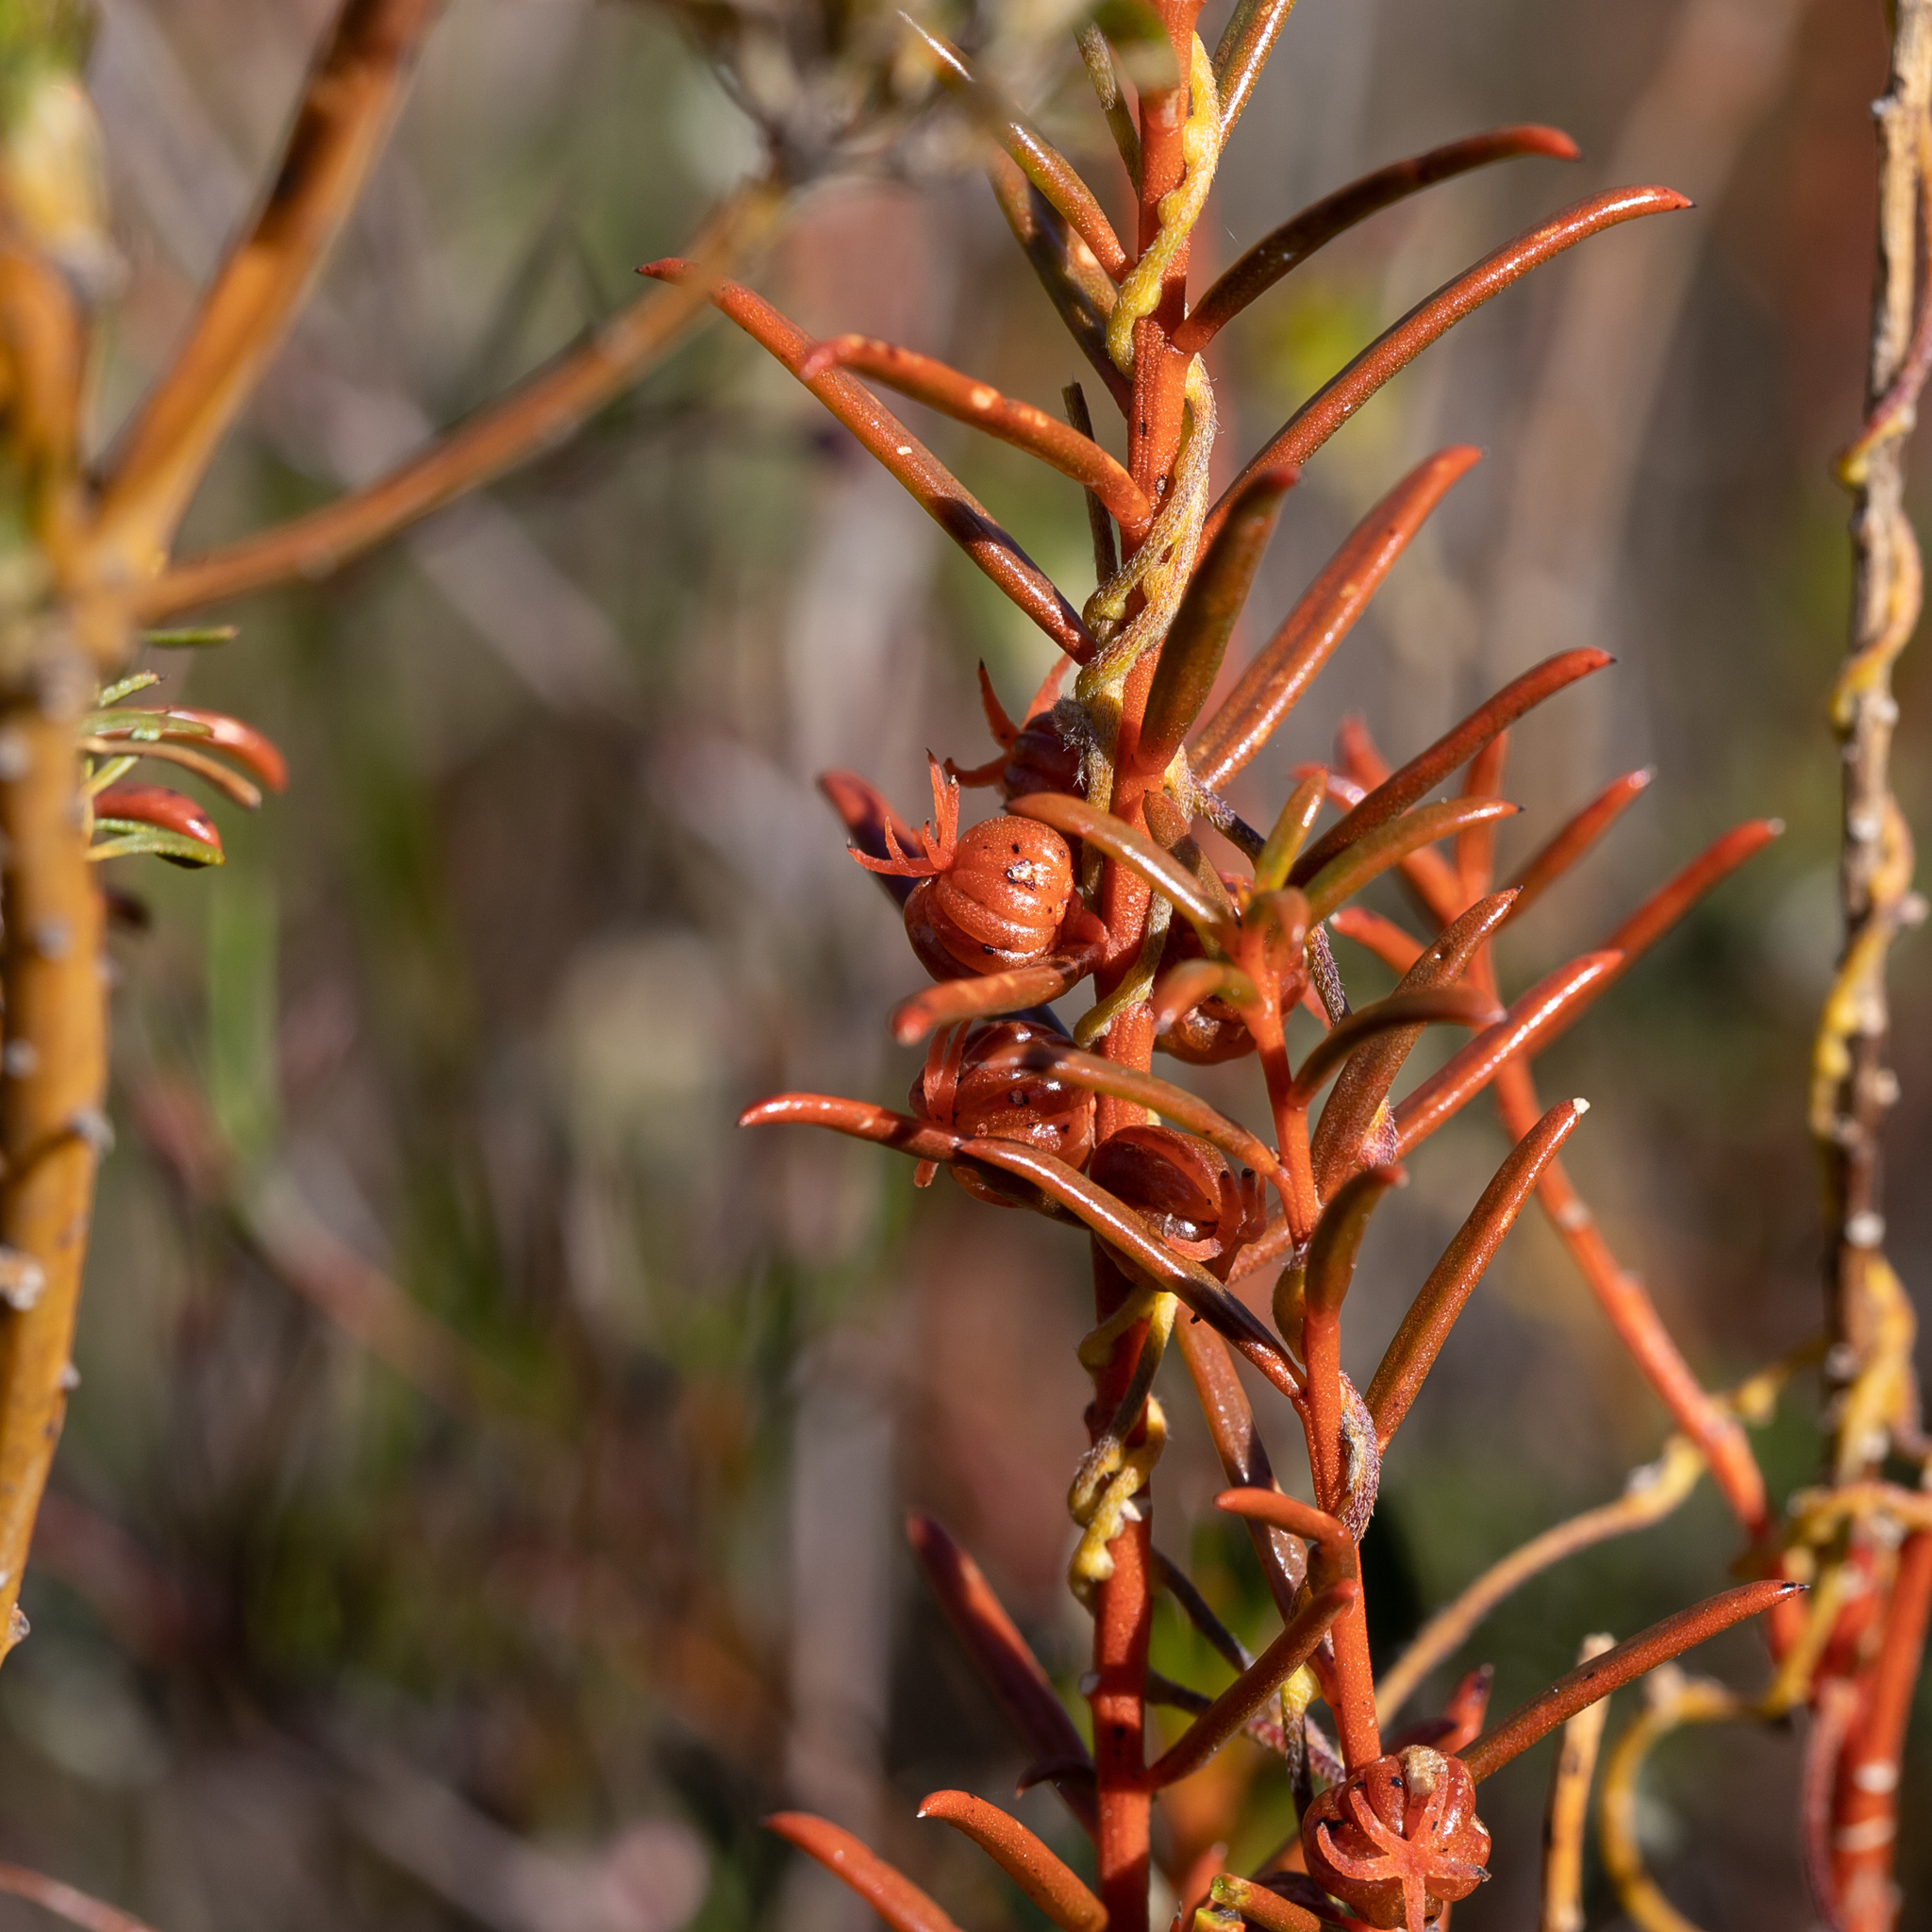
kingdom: Plantae
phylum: Tracheophyta
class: Magnoliopsida
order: Brassicales
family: Gyrostemonaceae
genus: Gyrostemon
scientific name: Gyrostemon australasicus
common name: Wheelfruit
